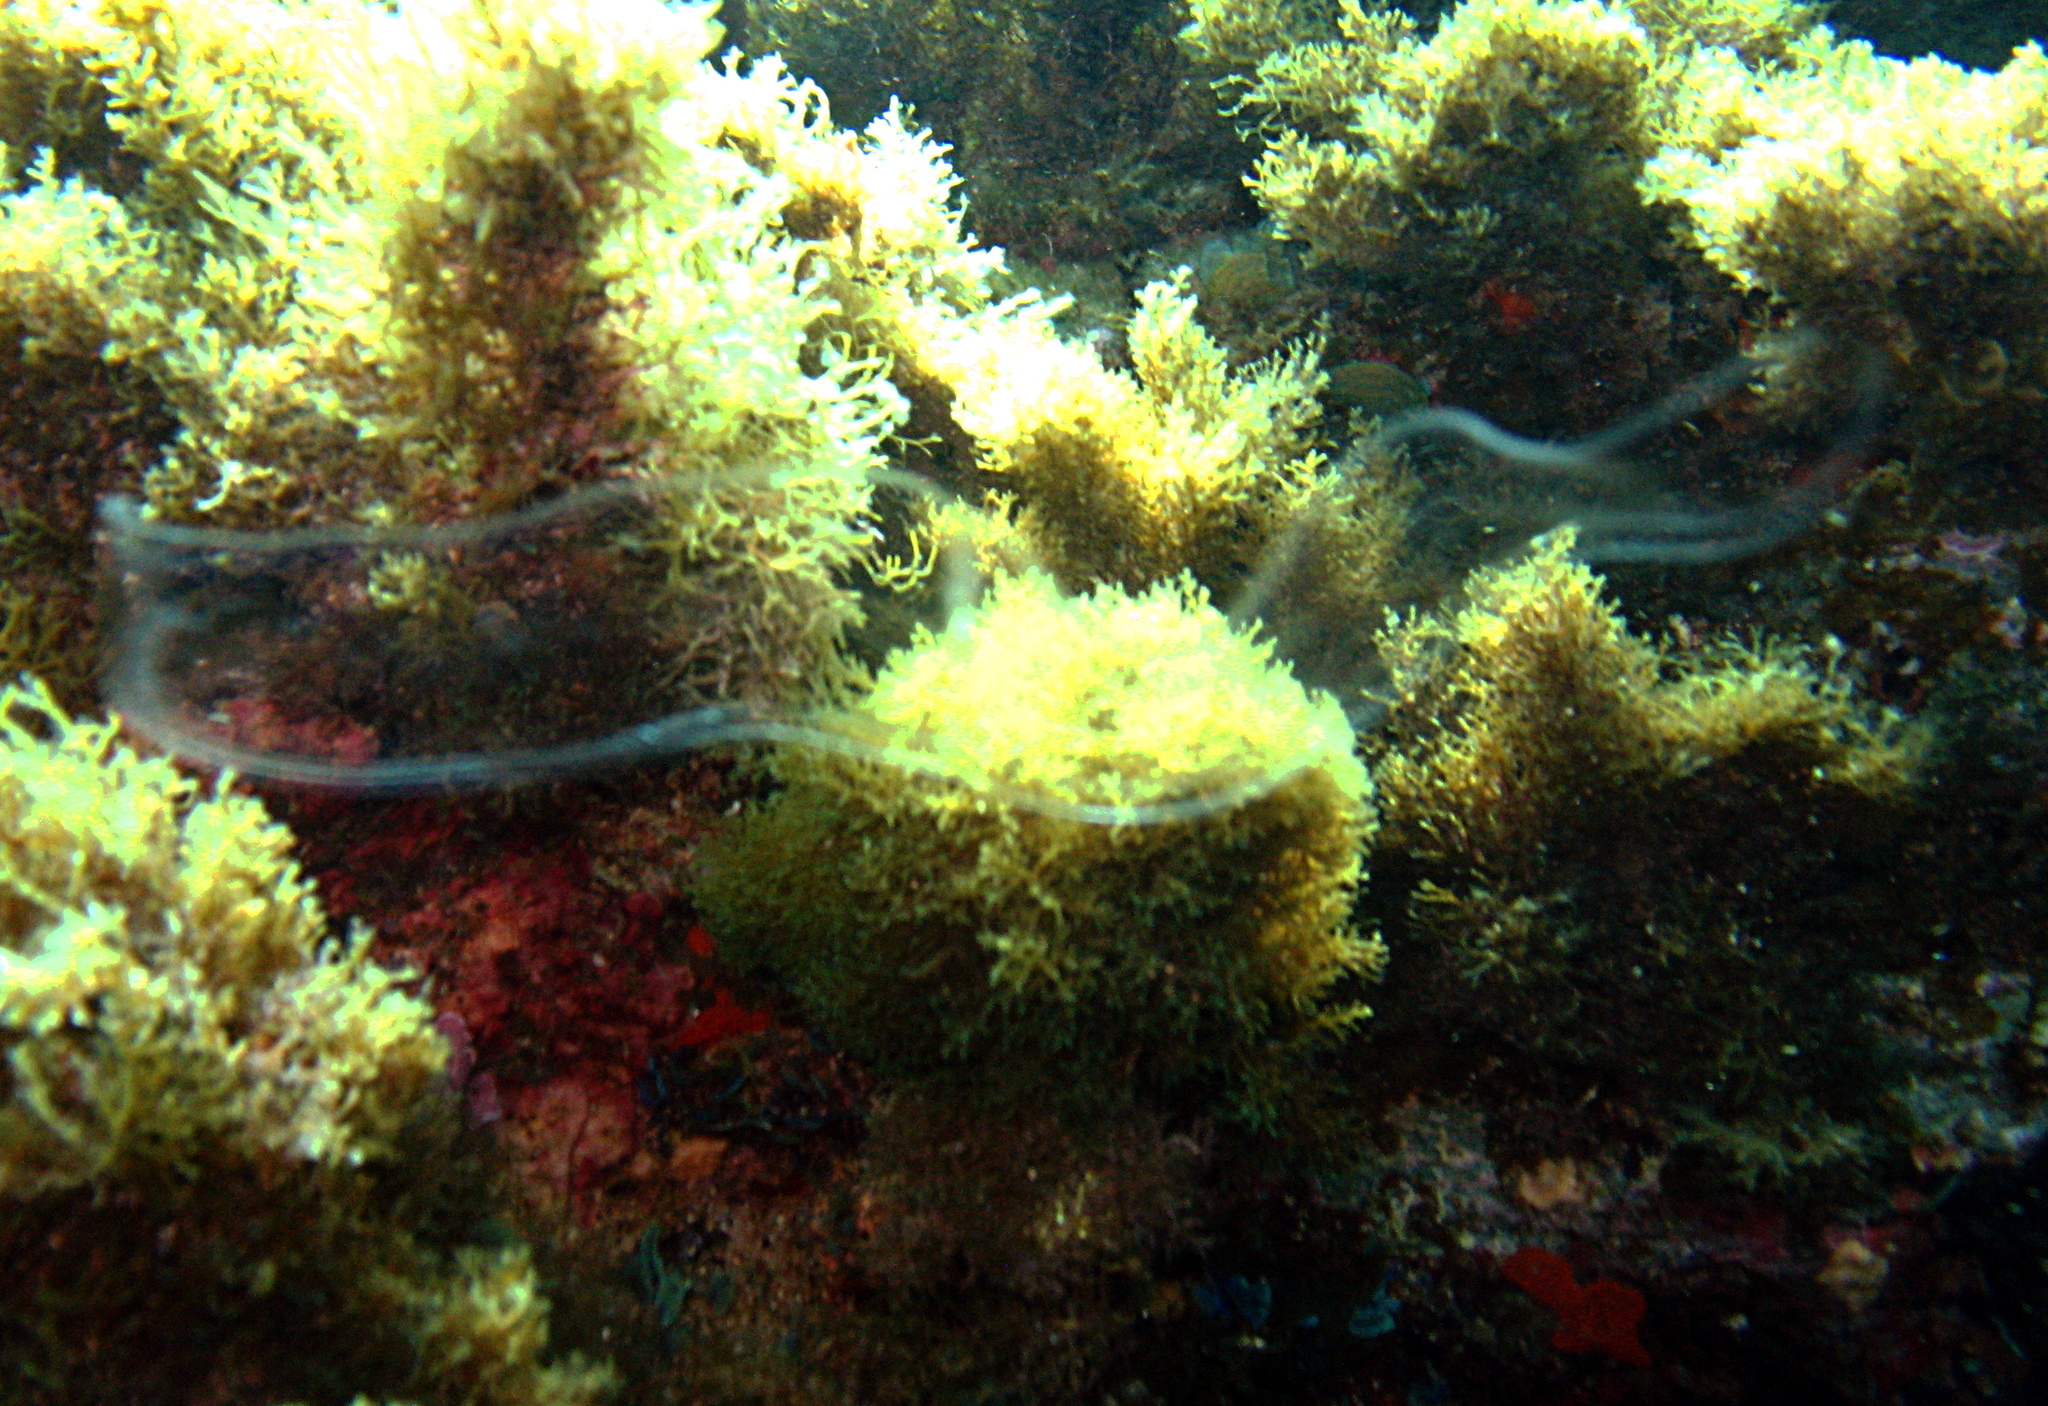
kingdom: Animalia
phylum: Ctenophora
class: Tentaculata
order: Cestida
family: Cestidae
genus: Cestum
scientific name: Cestum veneris
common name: Venus girdle
